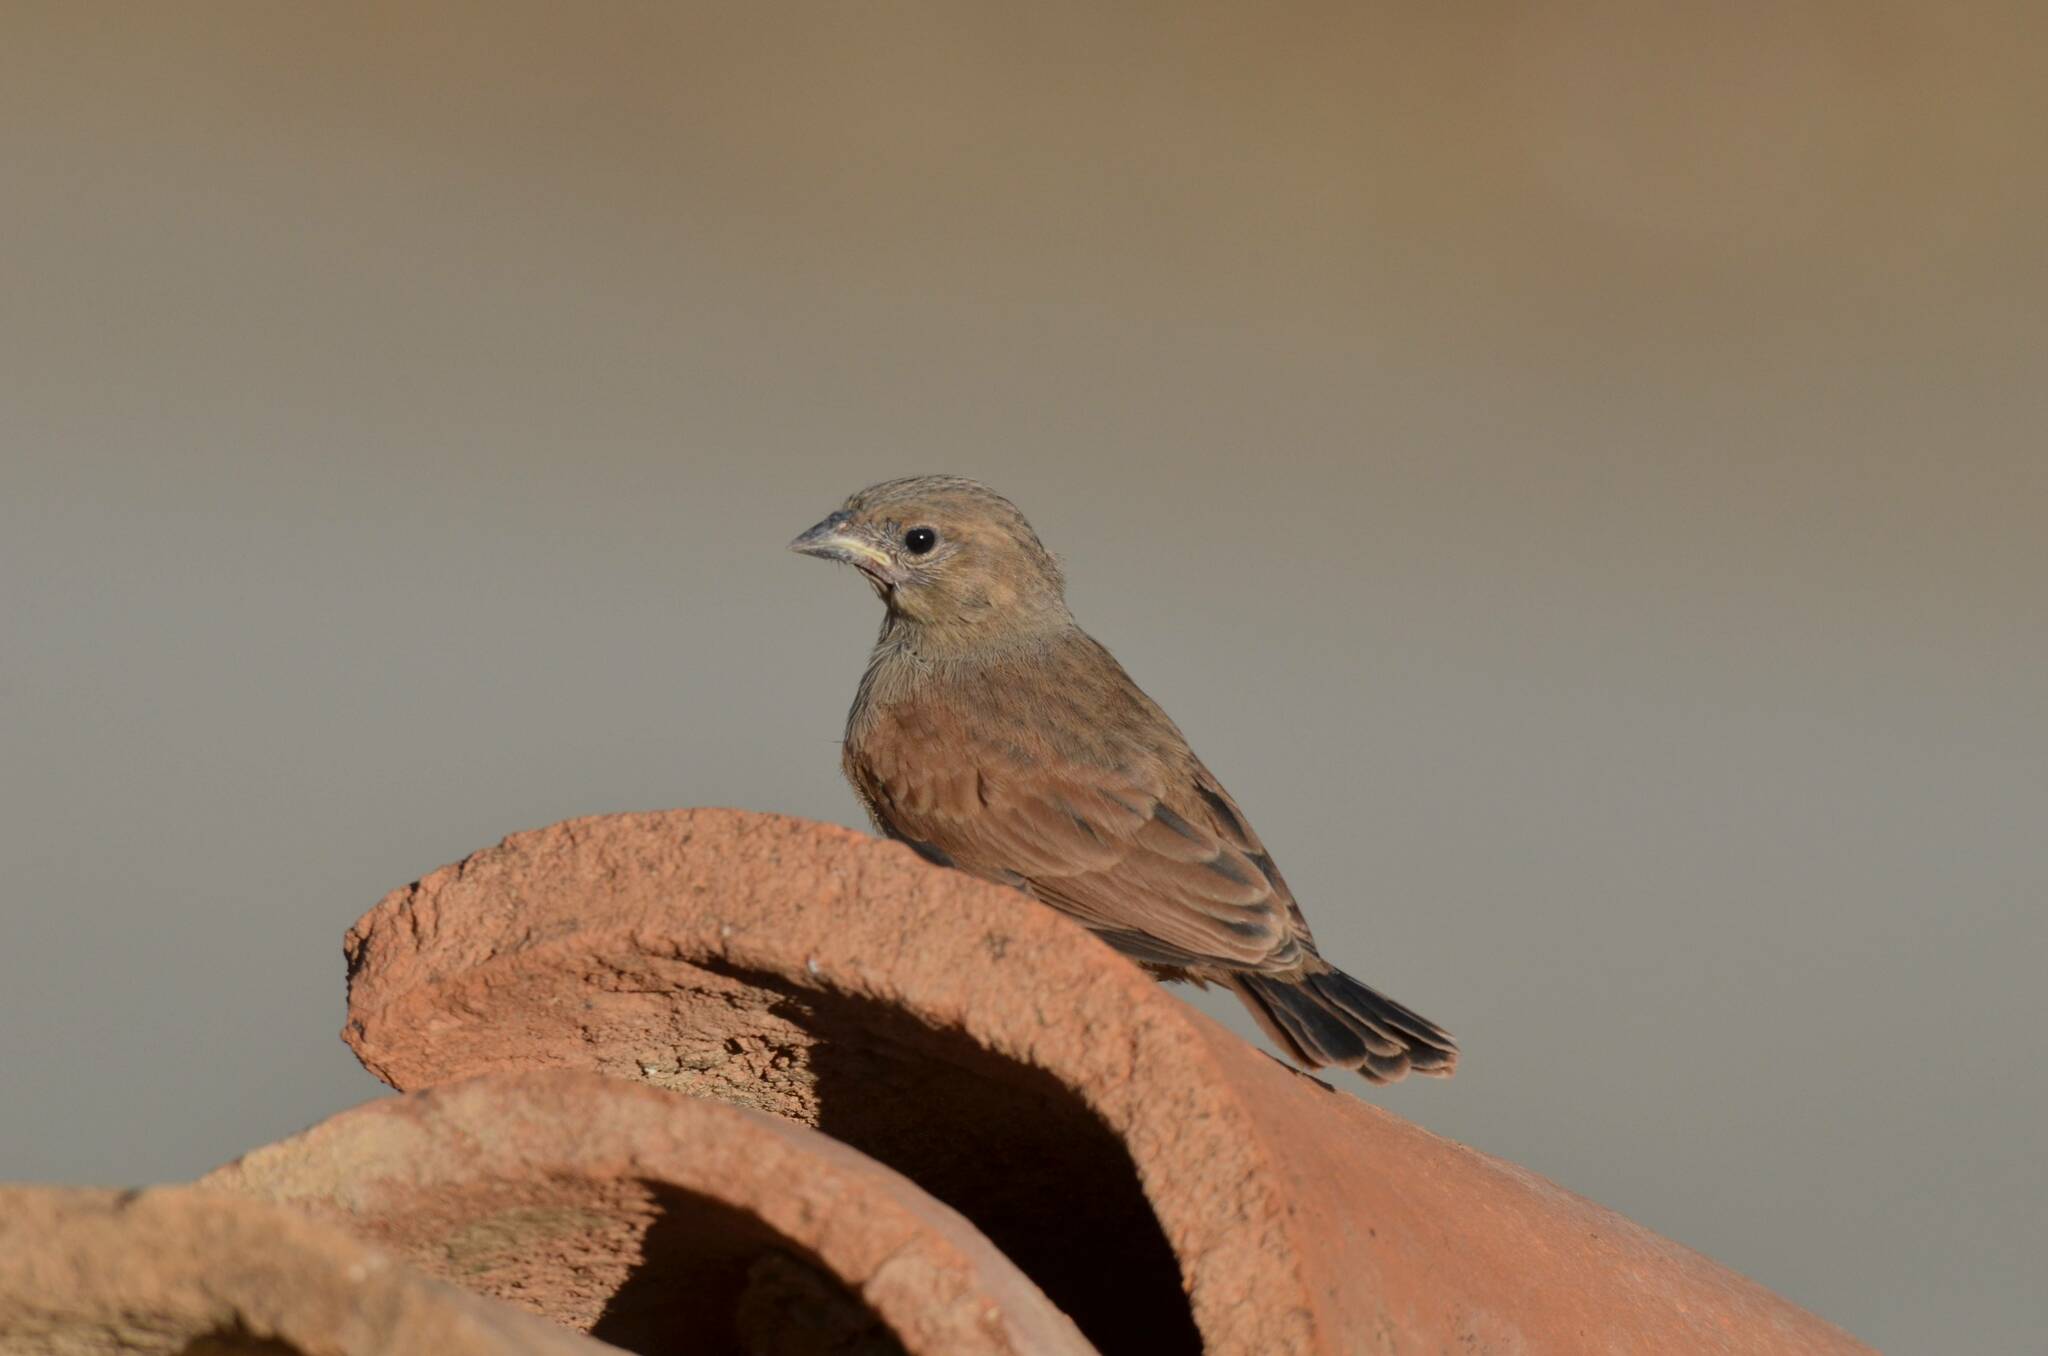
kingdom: Animalia
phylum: Chordata
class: Aves
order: Passeriformes
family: Emberizidae
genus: Emberiza
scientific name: Emberiza sahari
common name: House bunting
